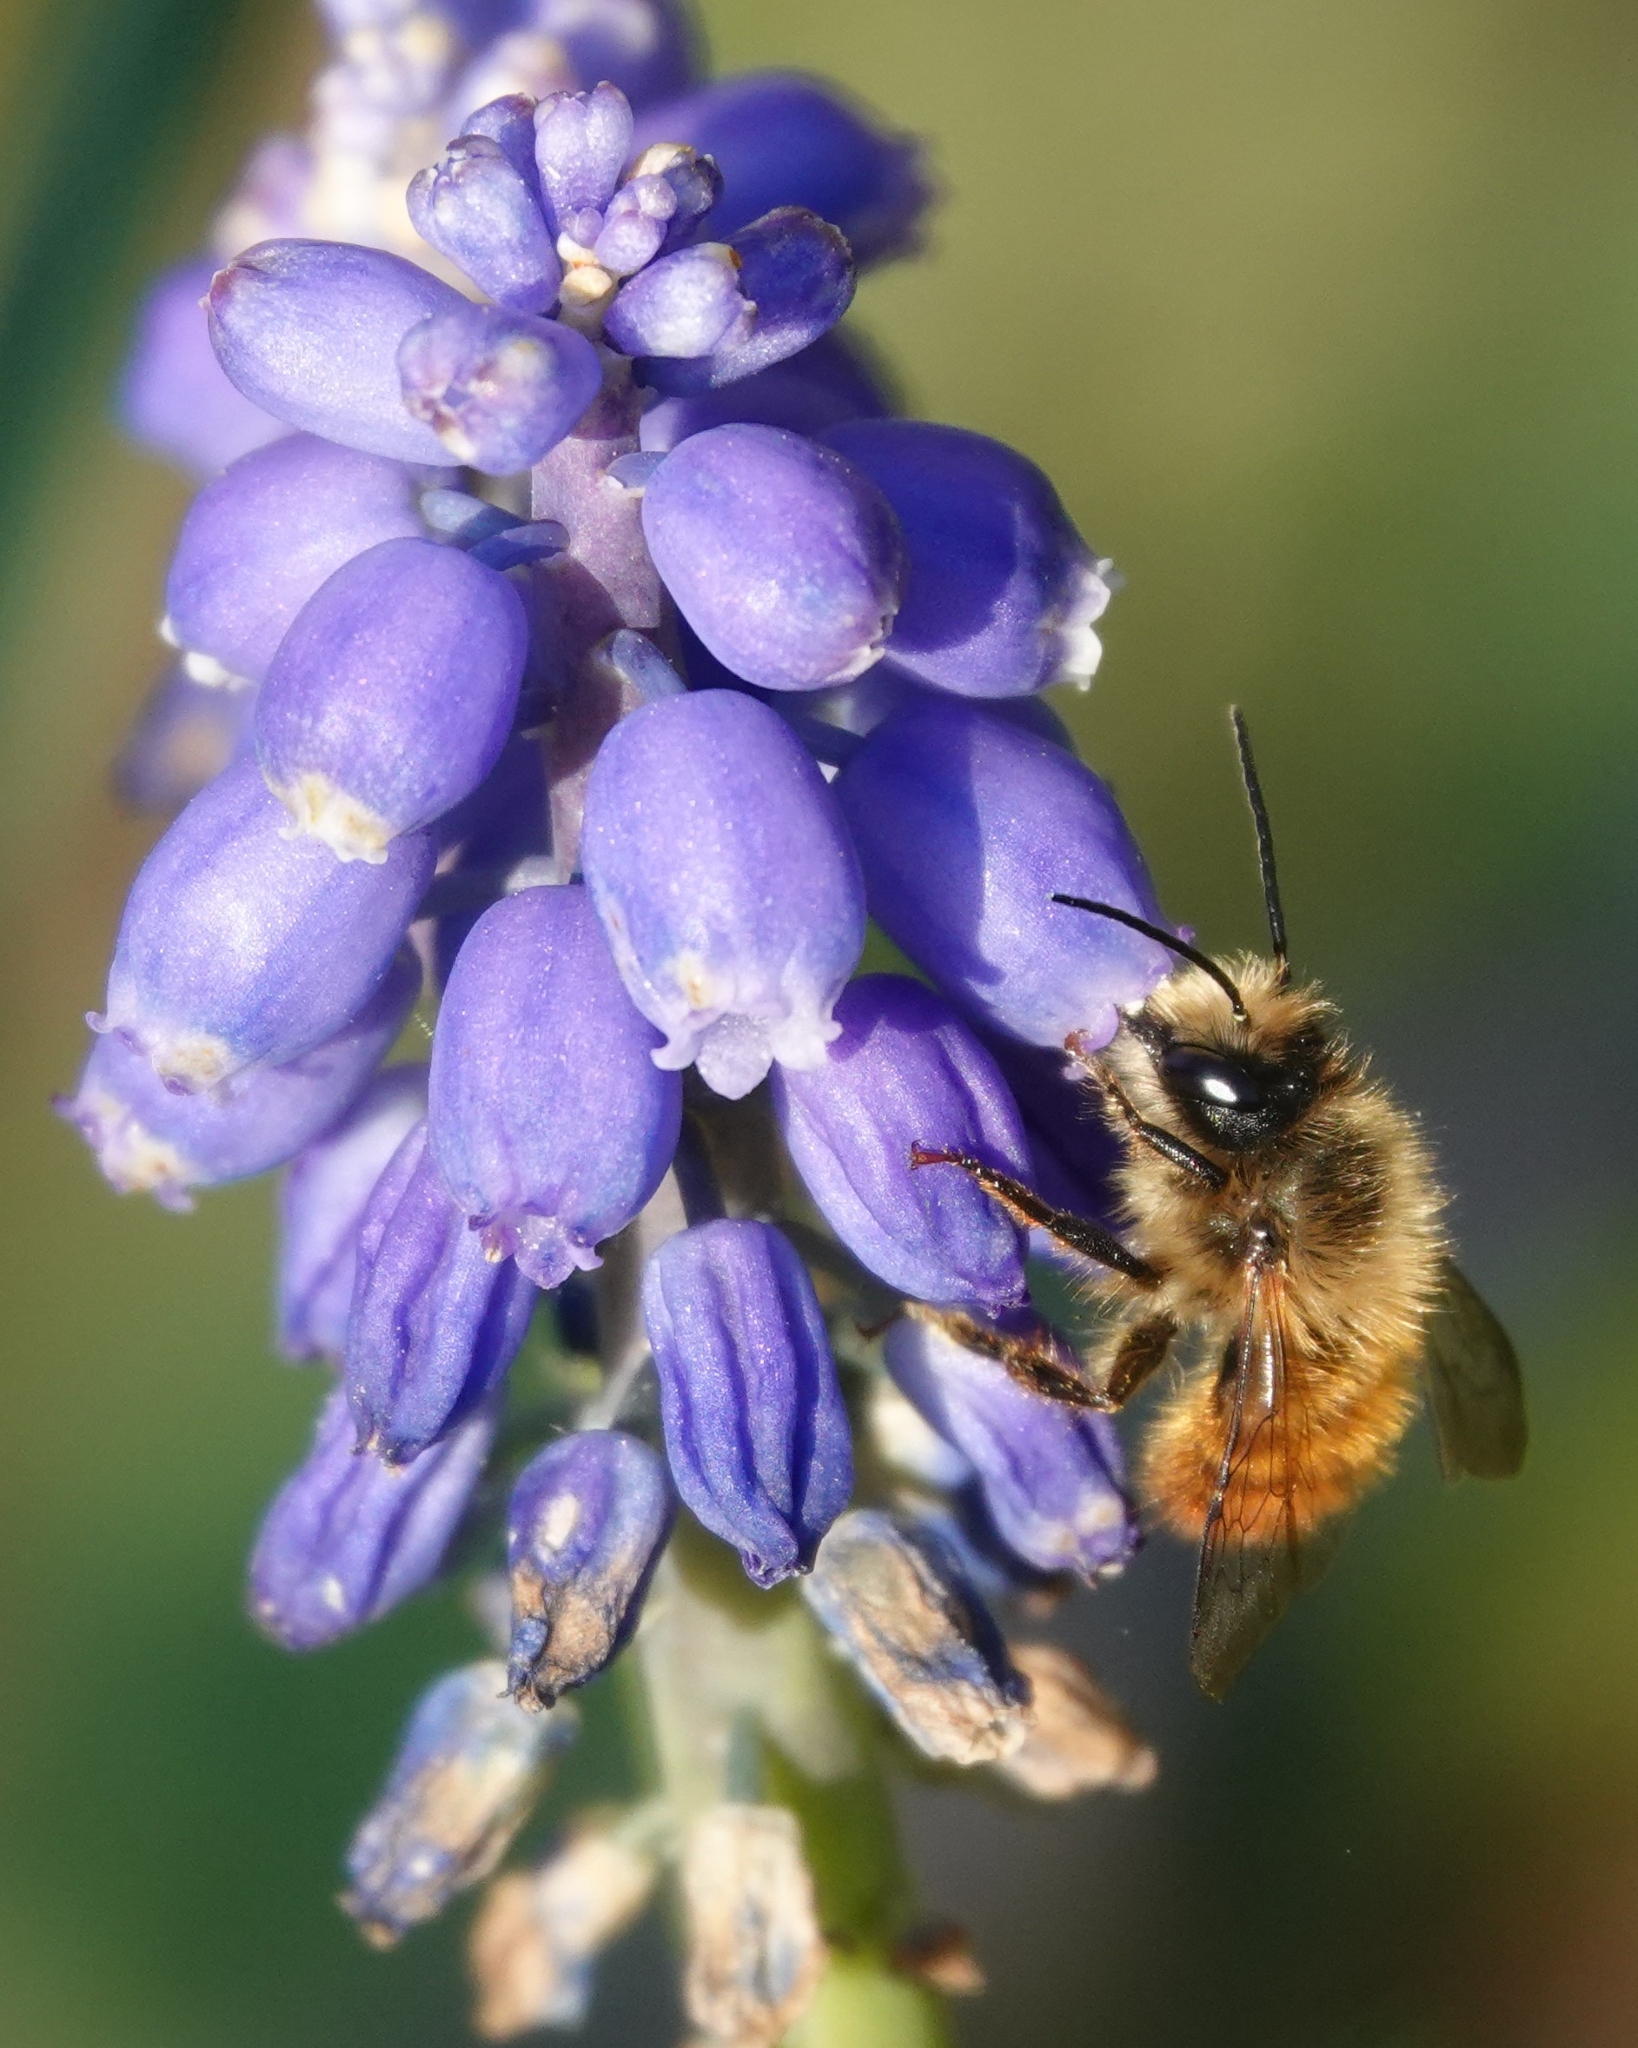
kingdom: Animalia
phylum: Arthropoda
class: Insecta
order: Hymenoptera
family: Megachilidae
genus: Osmia
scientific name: Osmia bicornis
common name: Red mason bee
